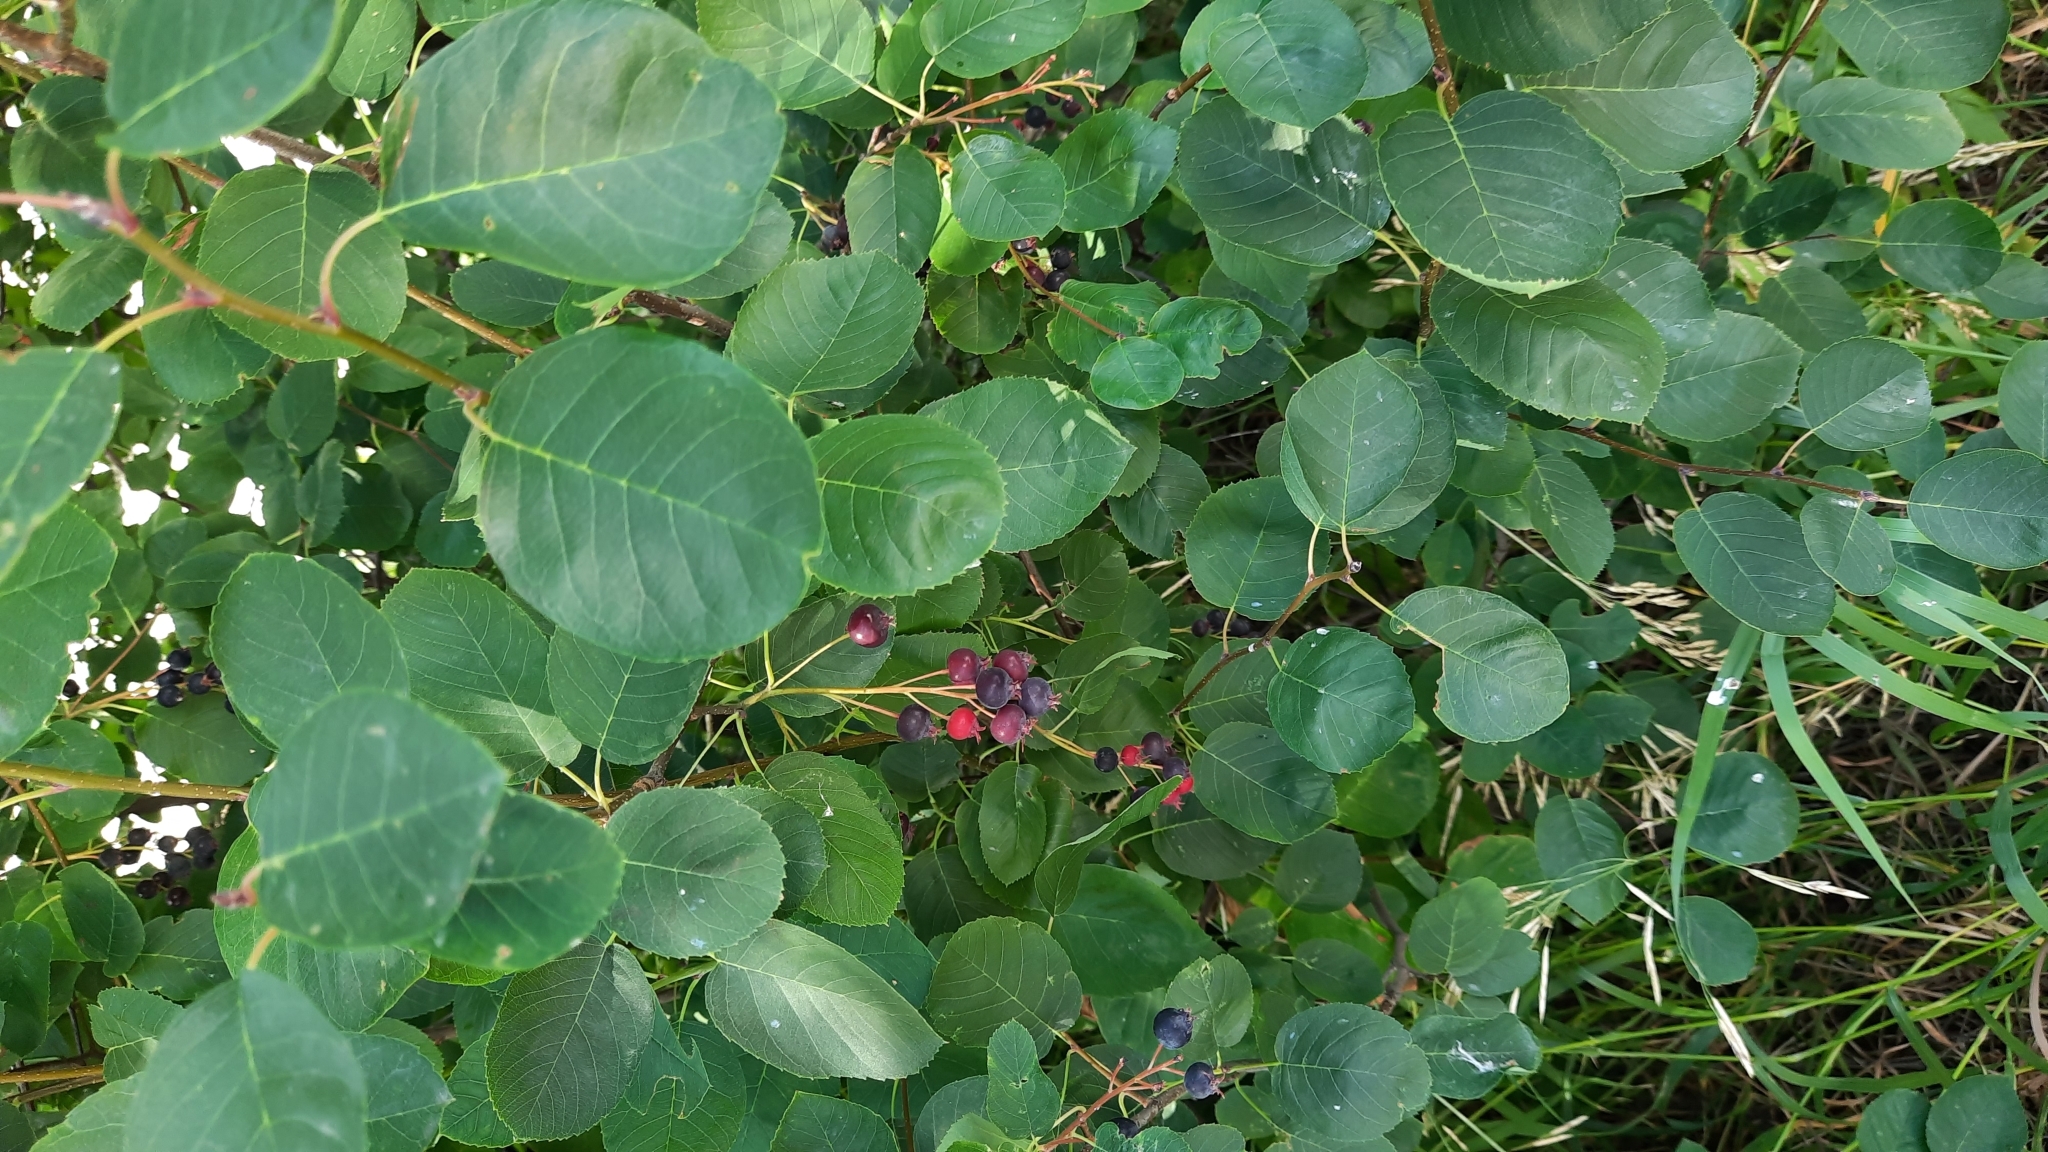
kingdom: Plantae
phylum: Tracheophyta
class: Magnoliopsida
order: Rosales
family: Rosaceae
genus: Amelanchier
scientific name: Amelanchier
